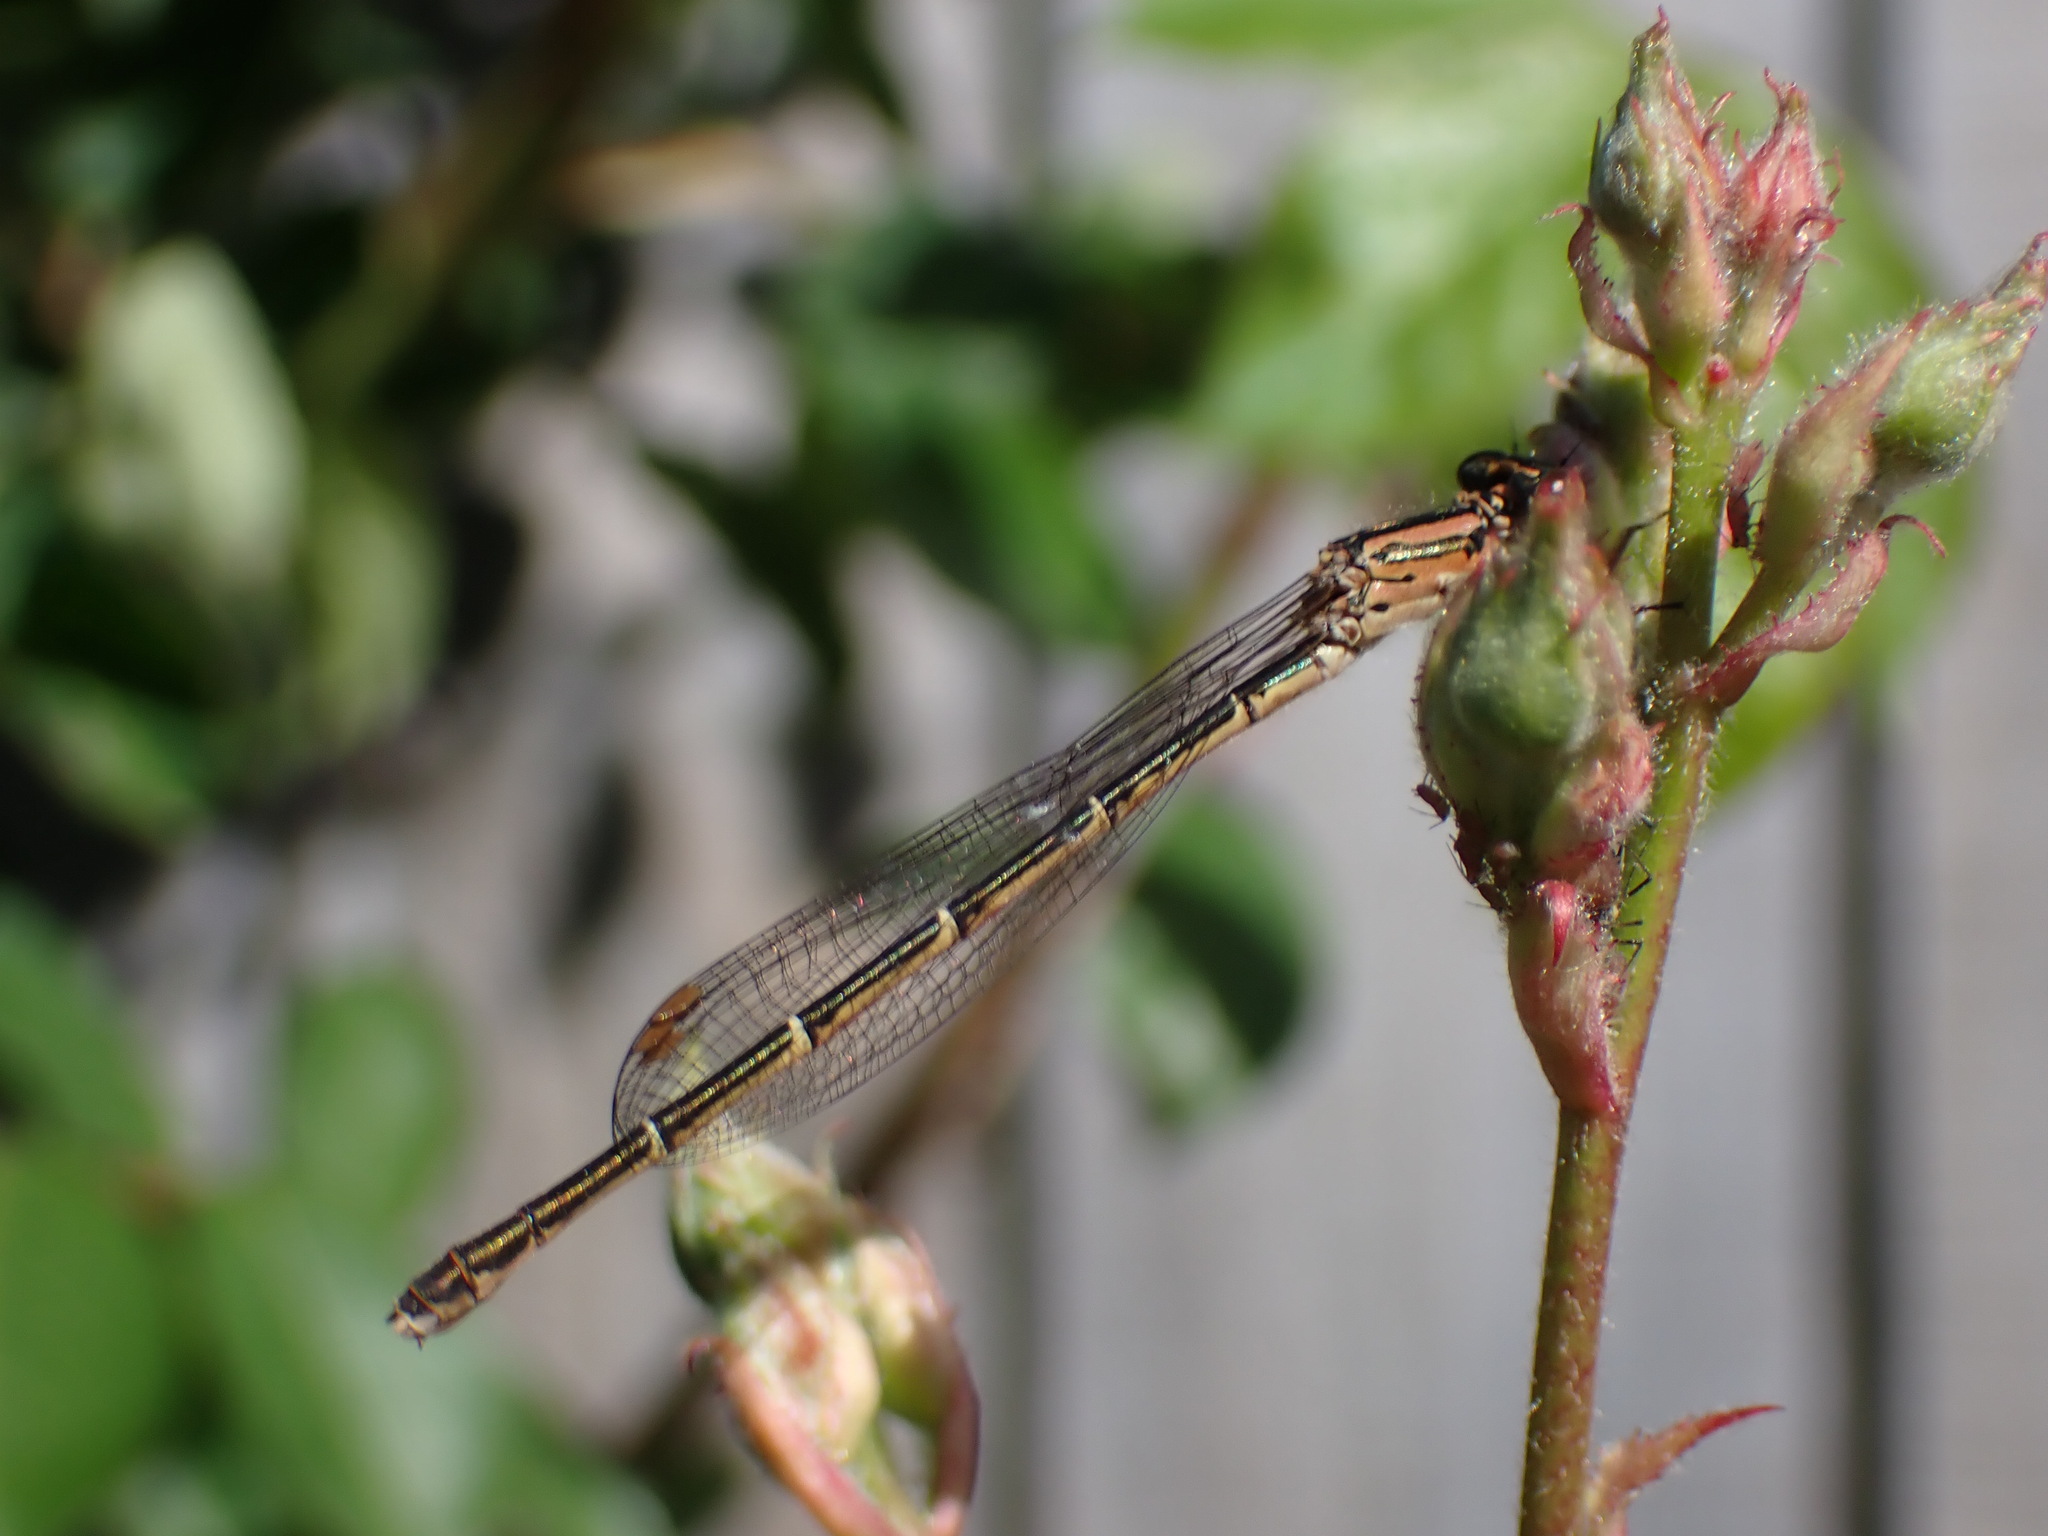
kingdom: Animalia
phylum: Arthropoda
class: Insecta
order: Odonata
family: Coenagrionidae
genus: Xanthocnemis
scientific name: Xanthocnemis zealandica
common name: Common redcoat damselfly
